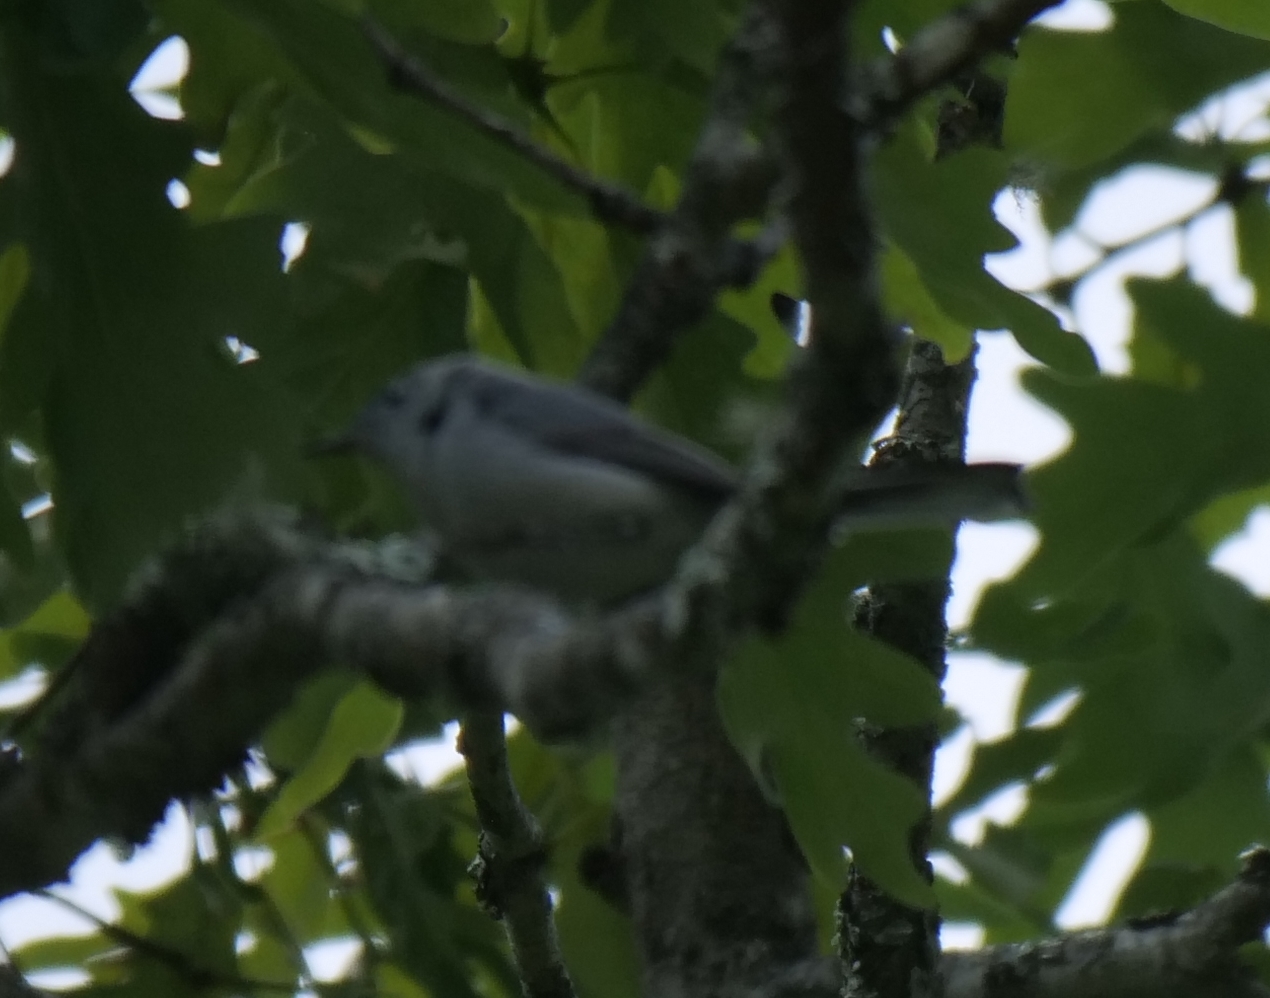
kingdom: Animalia
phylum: Chordata
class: Aves
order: Passeriformes
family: Polioptilidae
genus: Polioptila
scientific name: Polioptila caerulea
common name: Blue-gray gnatcatcher
